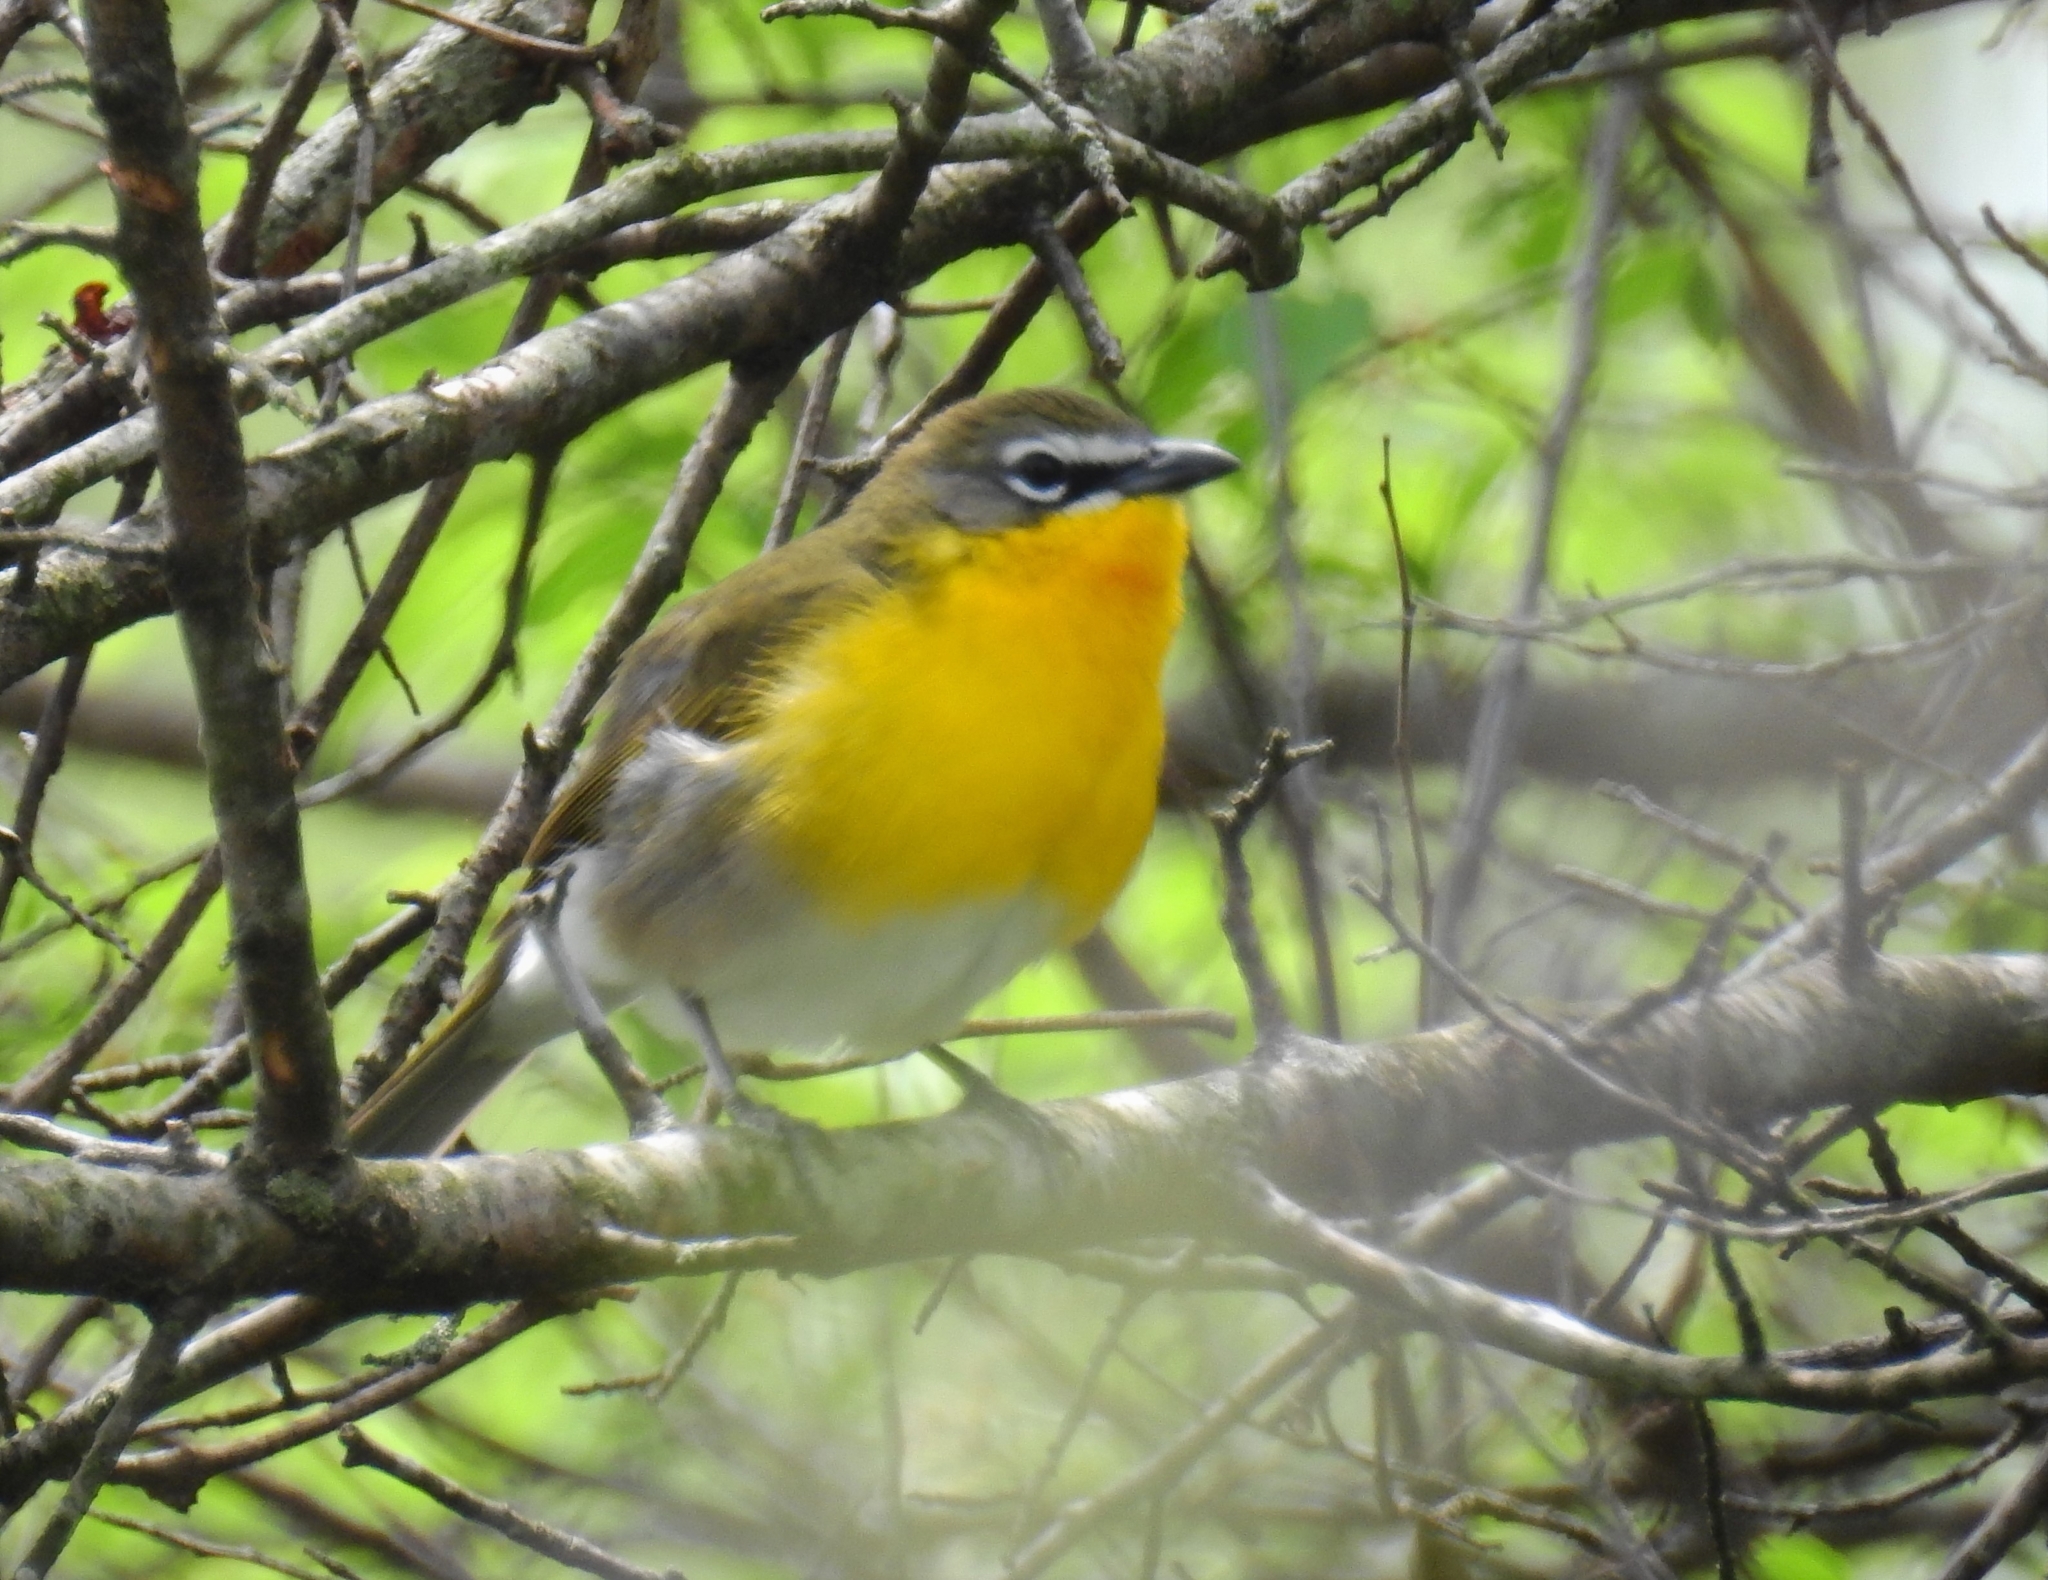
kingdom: Animalia
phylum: Chordata
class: Aves
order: Passeriformes
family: Parulidae
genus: Icteria
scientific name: Icteria virens
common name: Yellow-breasted chat
